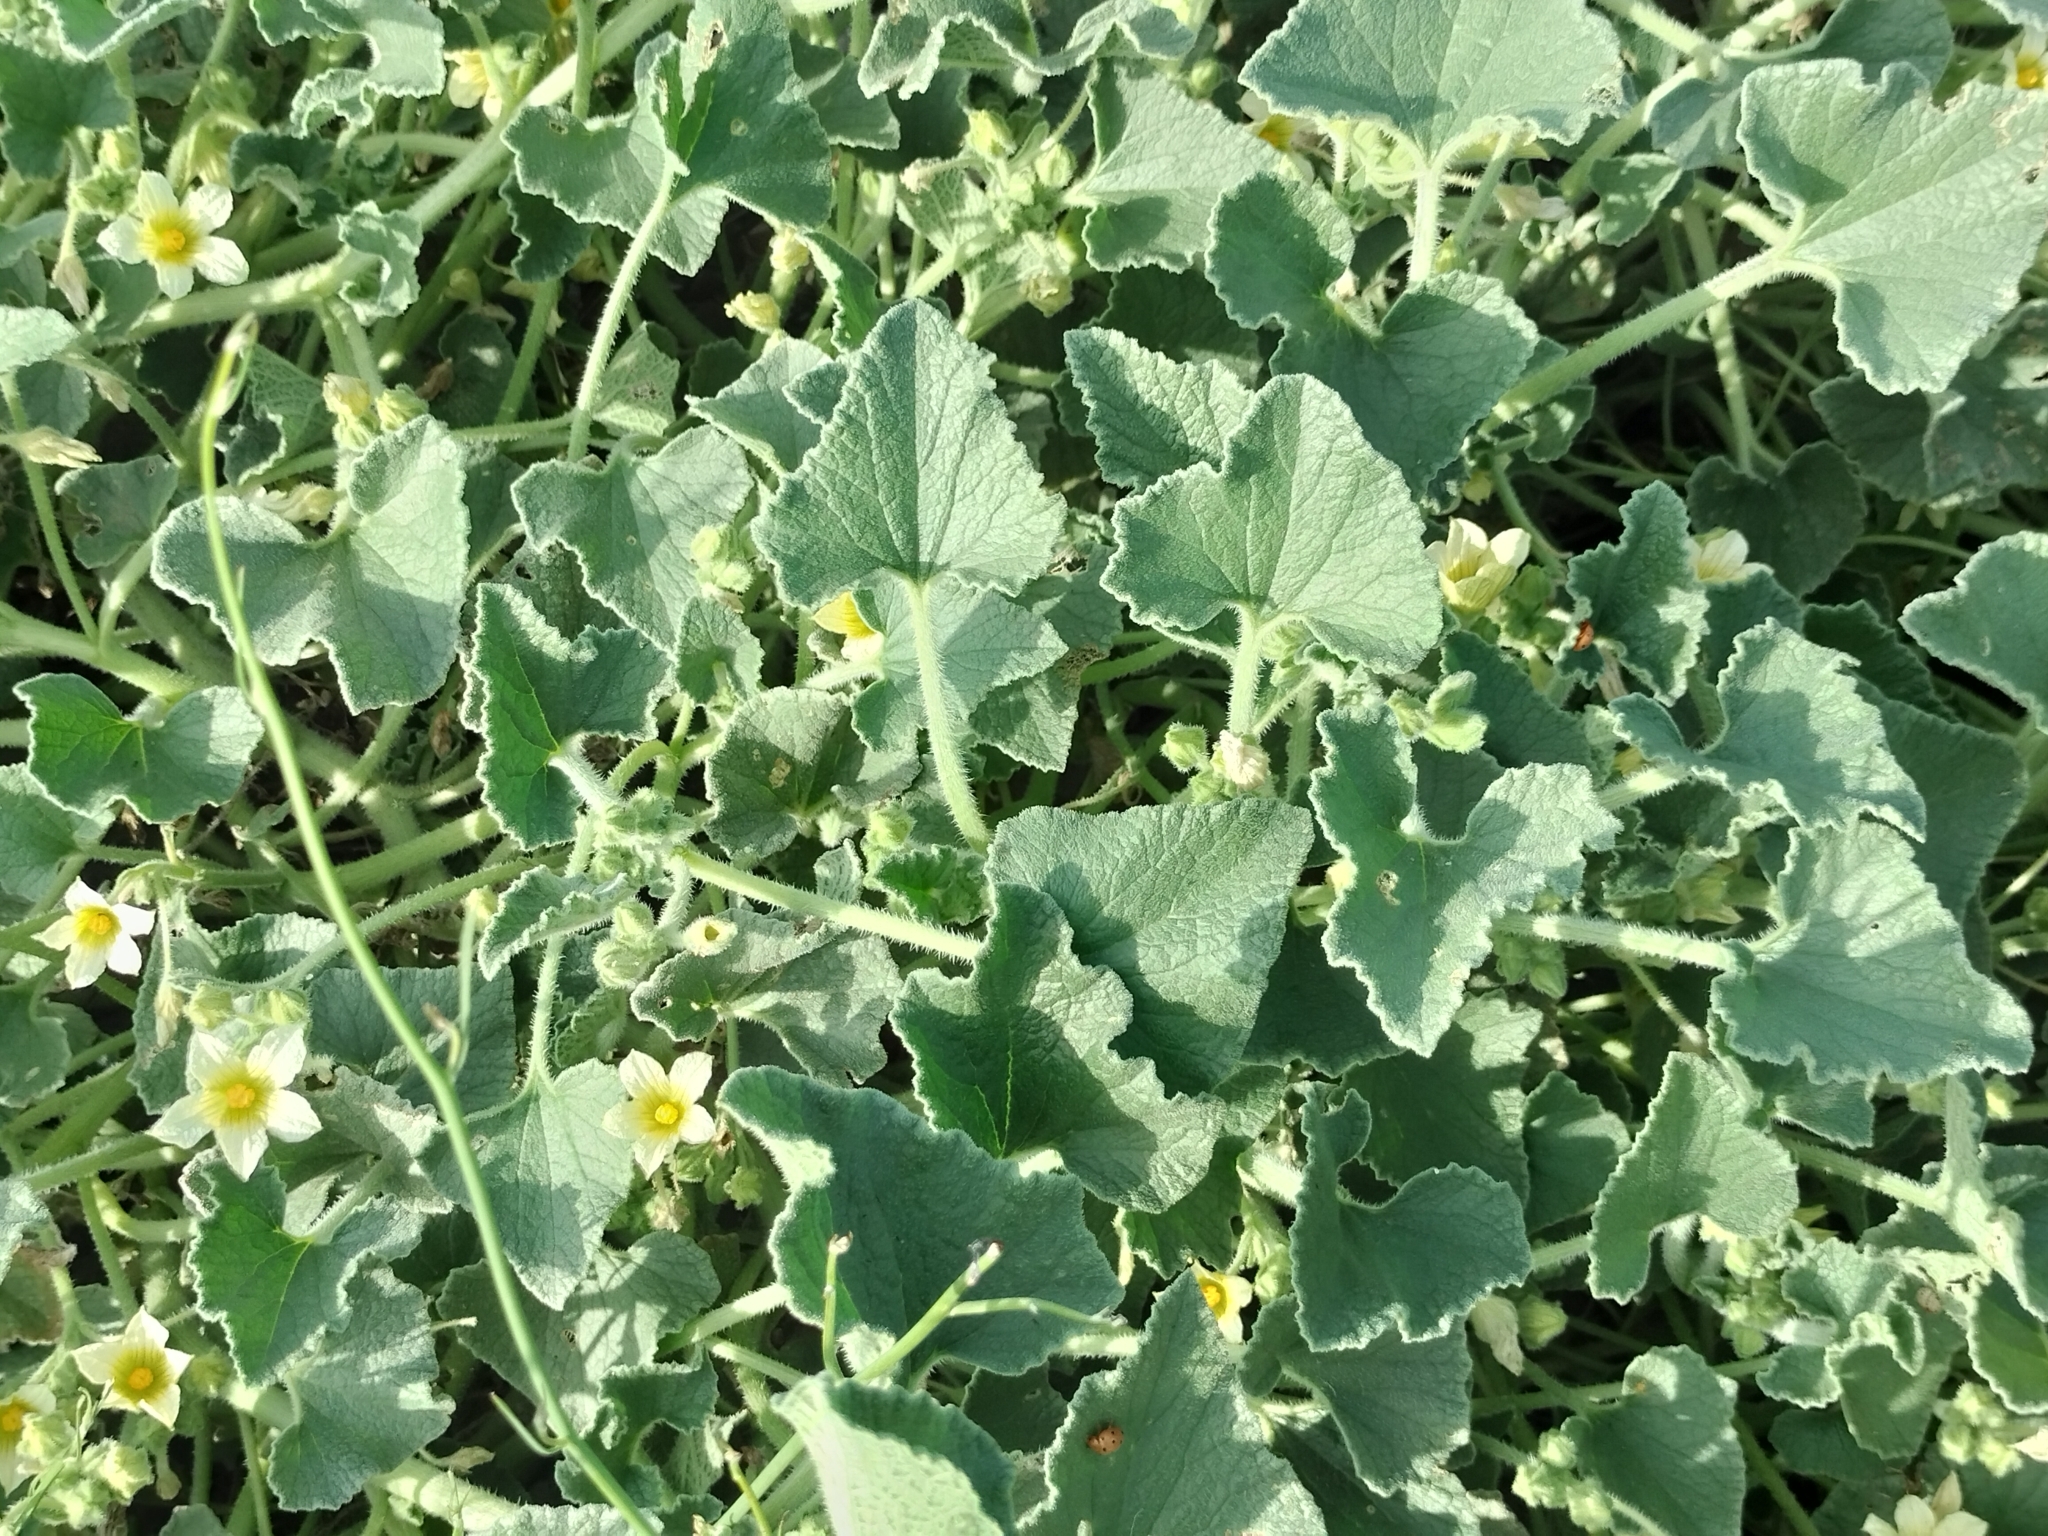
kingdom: Plantae
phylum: Tracheophyta
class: Magnoliopsida
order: Cucurbitales
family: Cucurbitaceae
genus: Ecballium
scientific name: Ecballium elaterium
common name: Squirting cucumber
